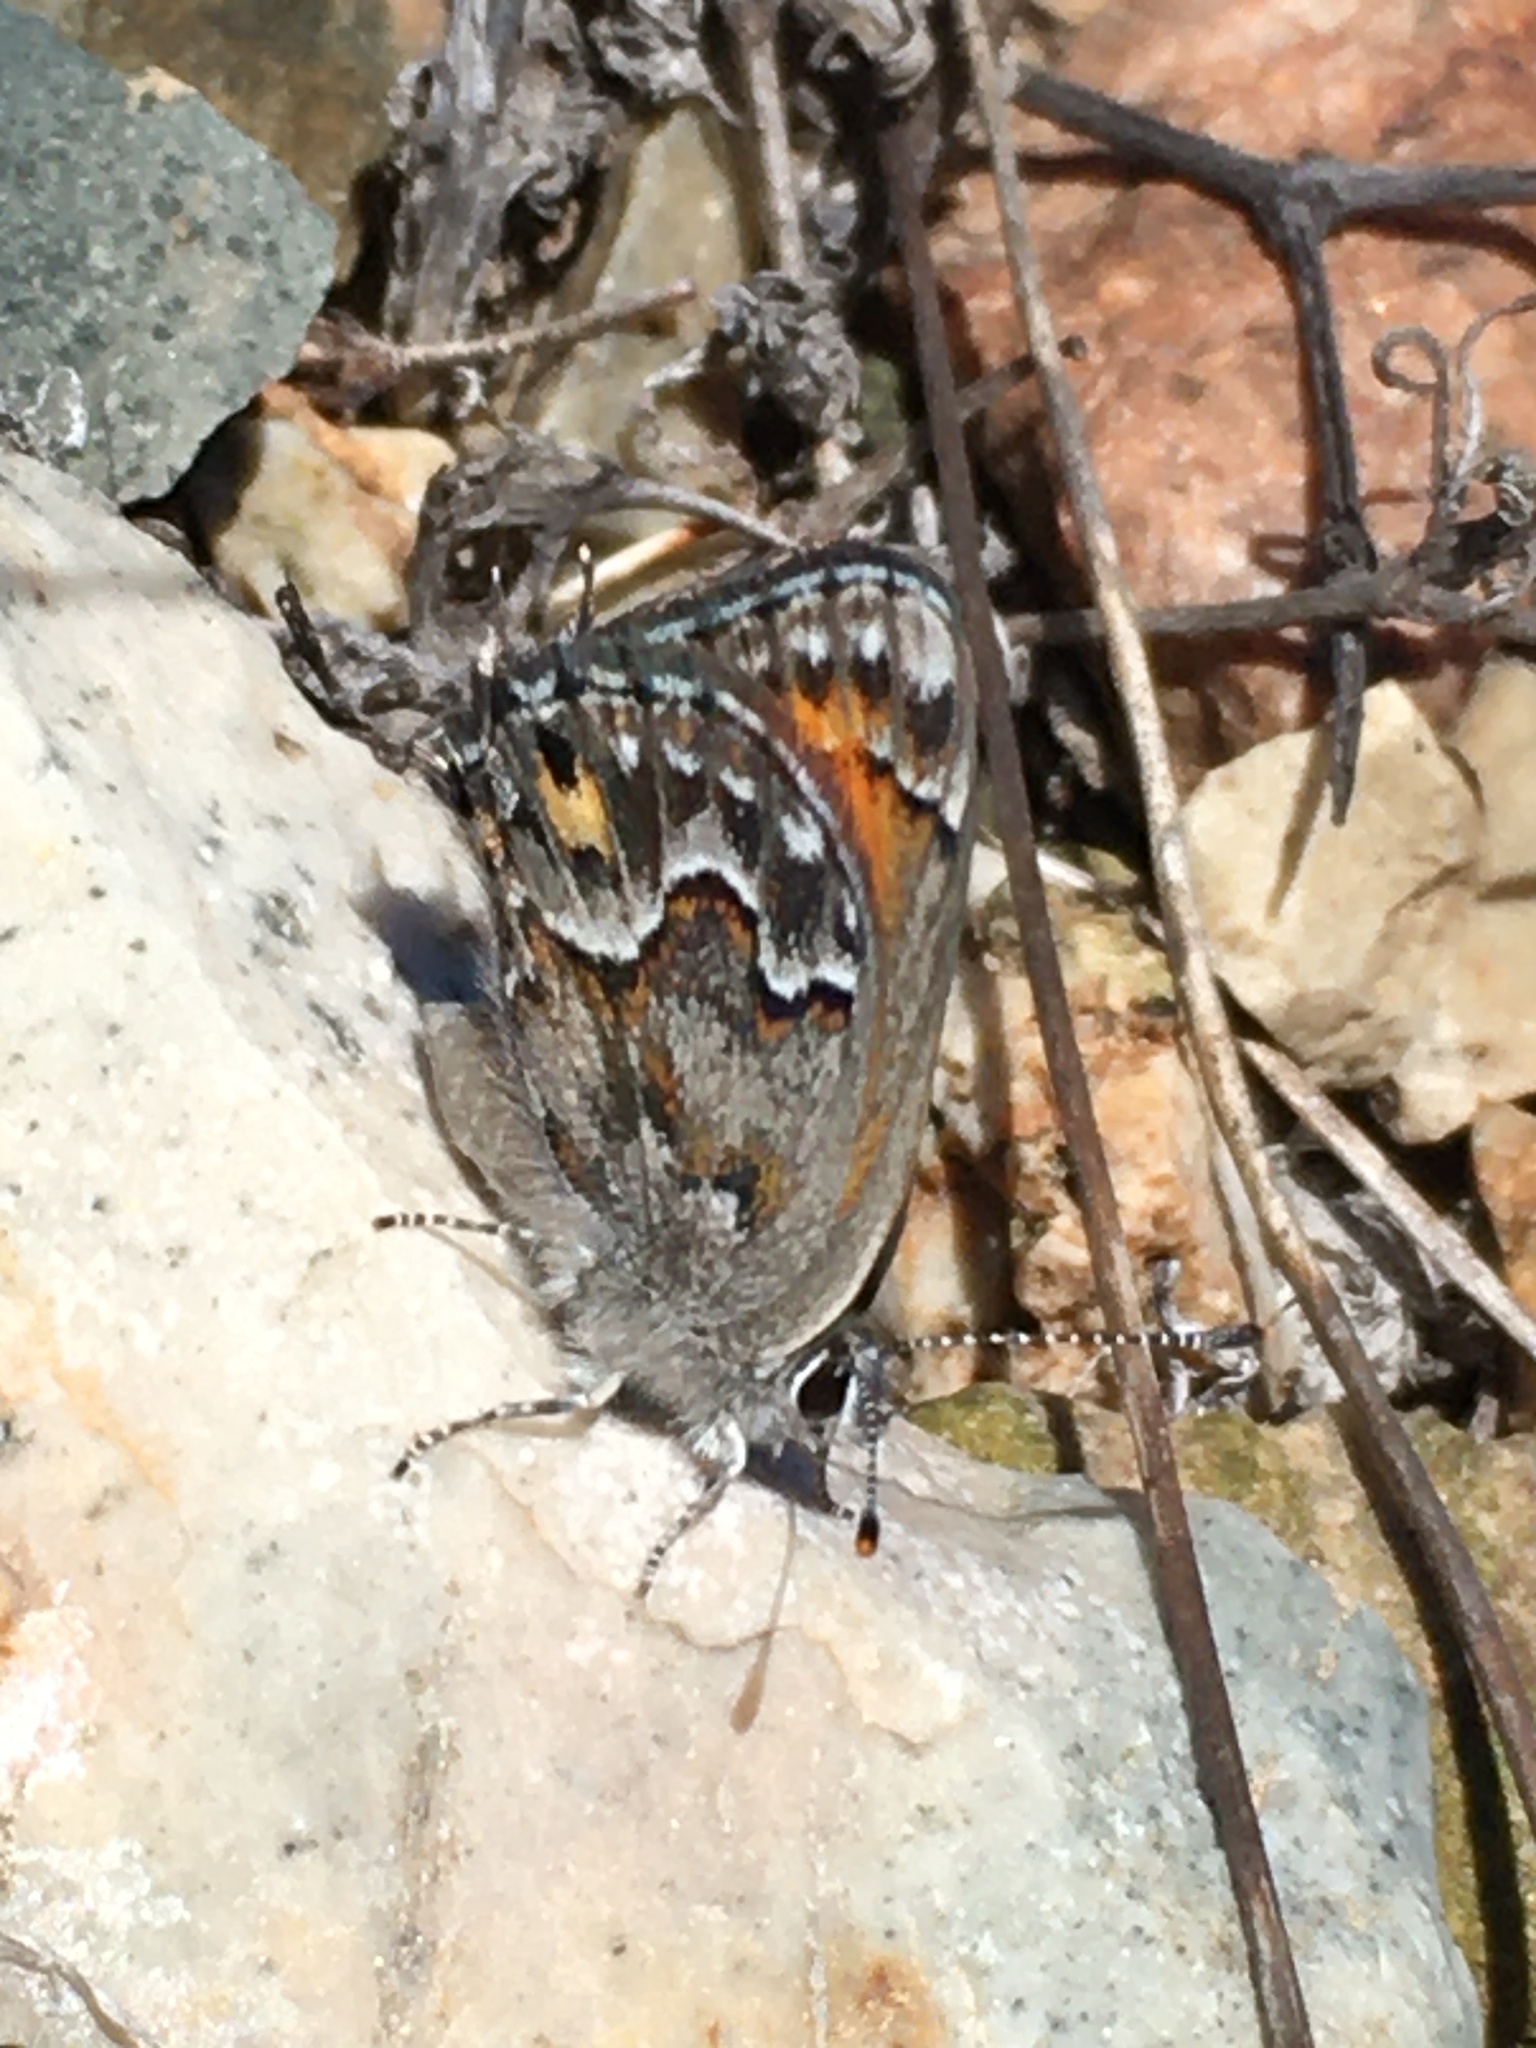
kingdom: Animalia
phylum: Arthropoda
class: Insecta
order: Lepidoptera
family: Lycaenidae
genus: Strymon
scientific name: Strymon
